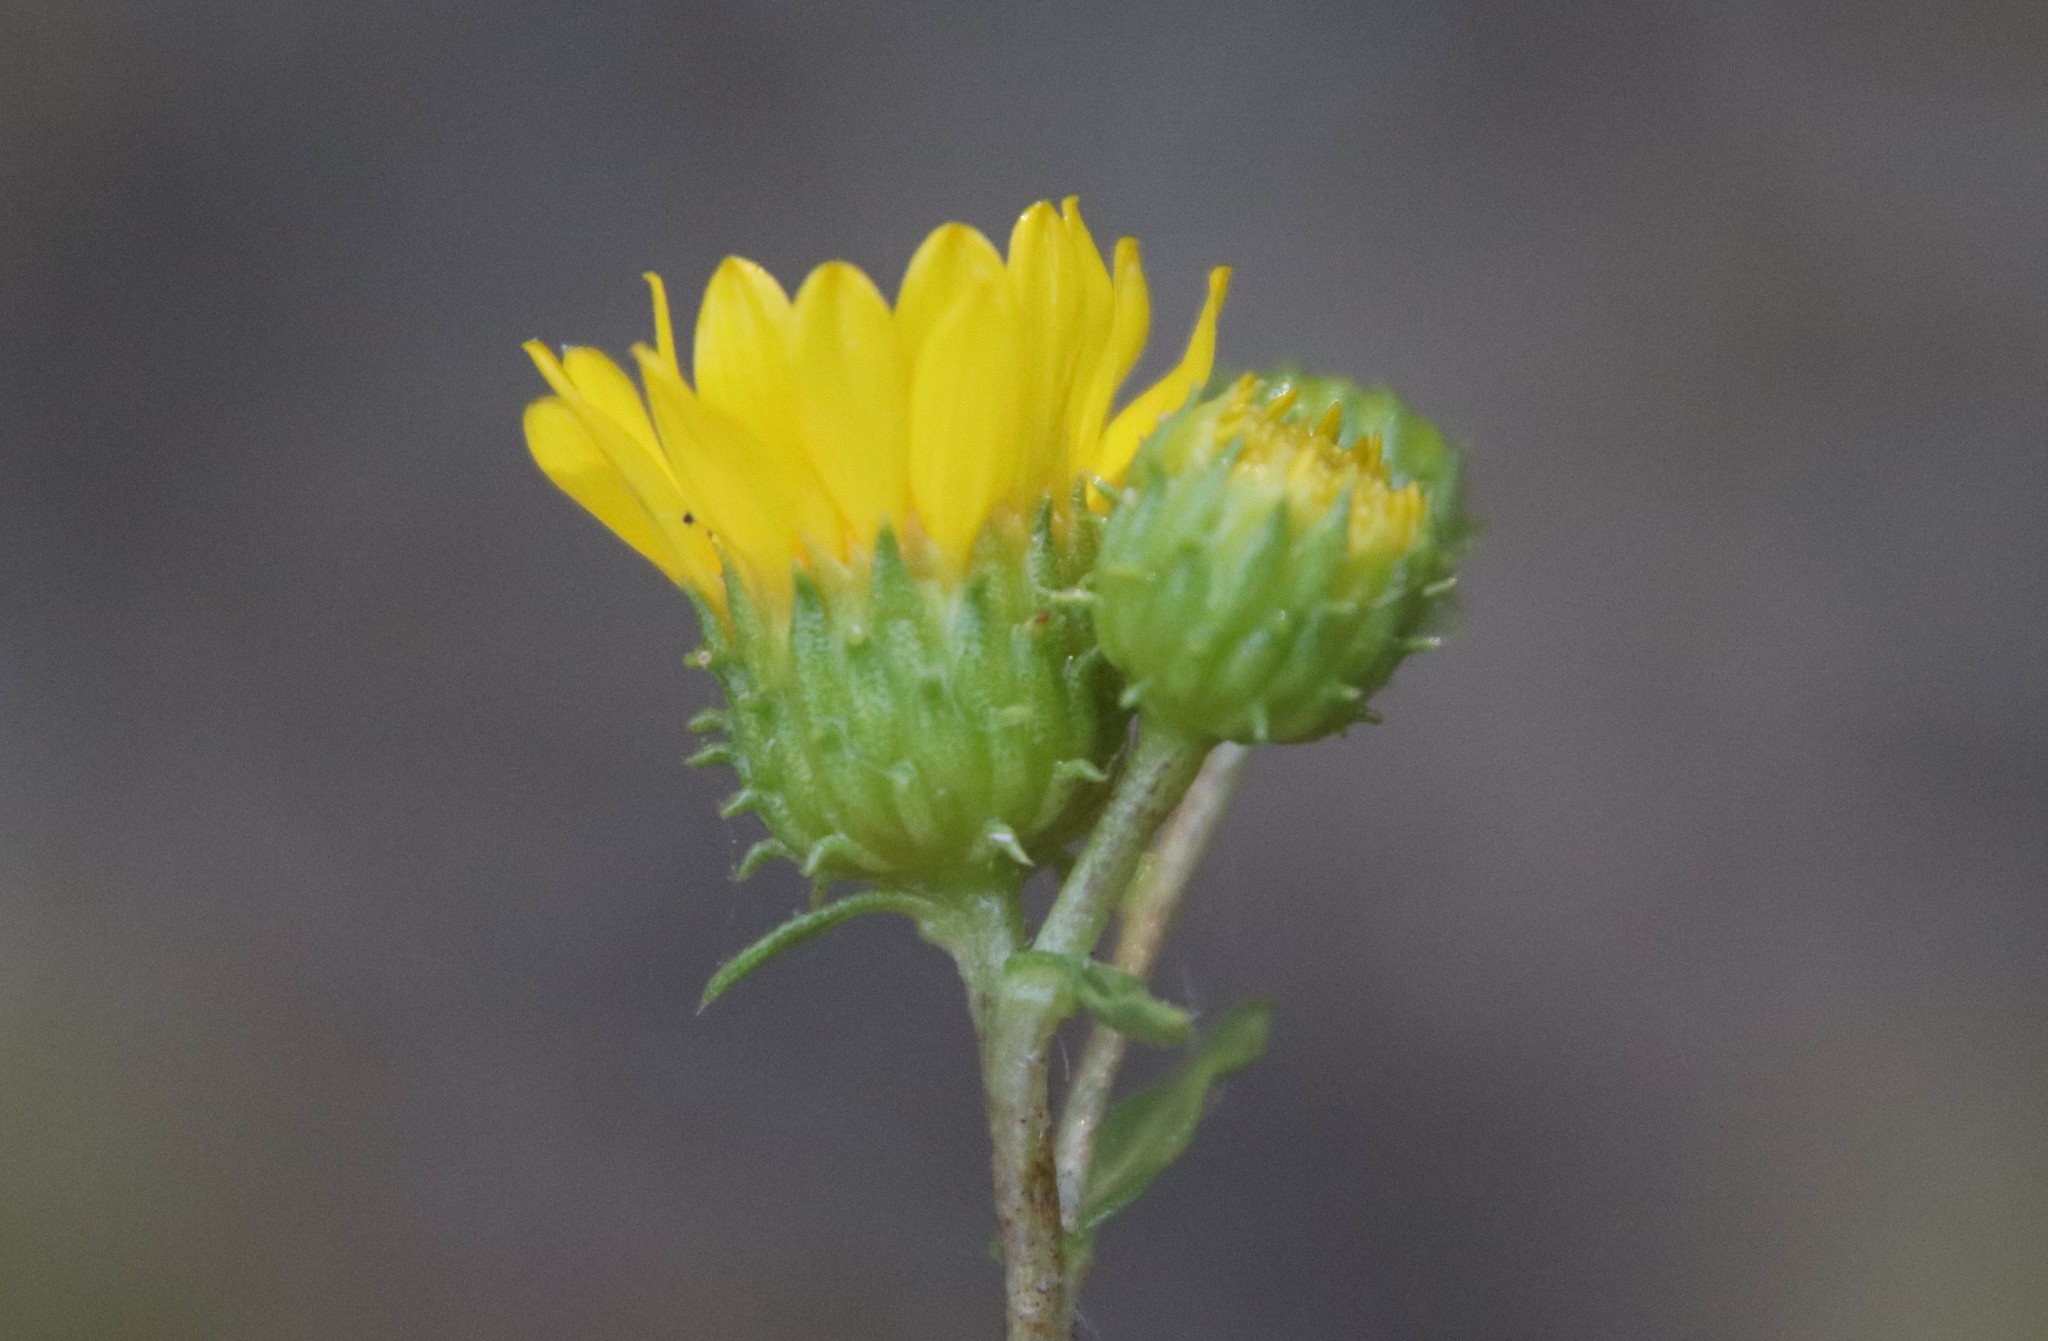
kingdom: Plantae
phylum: Tracheophyta
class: Magnoliopsida
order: Asterales
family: Asteraceae
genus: Grindelia
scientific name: Grindelia hirsutula
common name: Hairy gumweed
